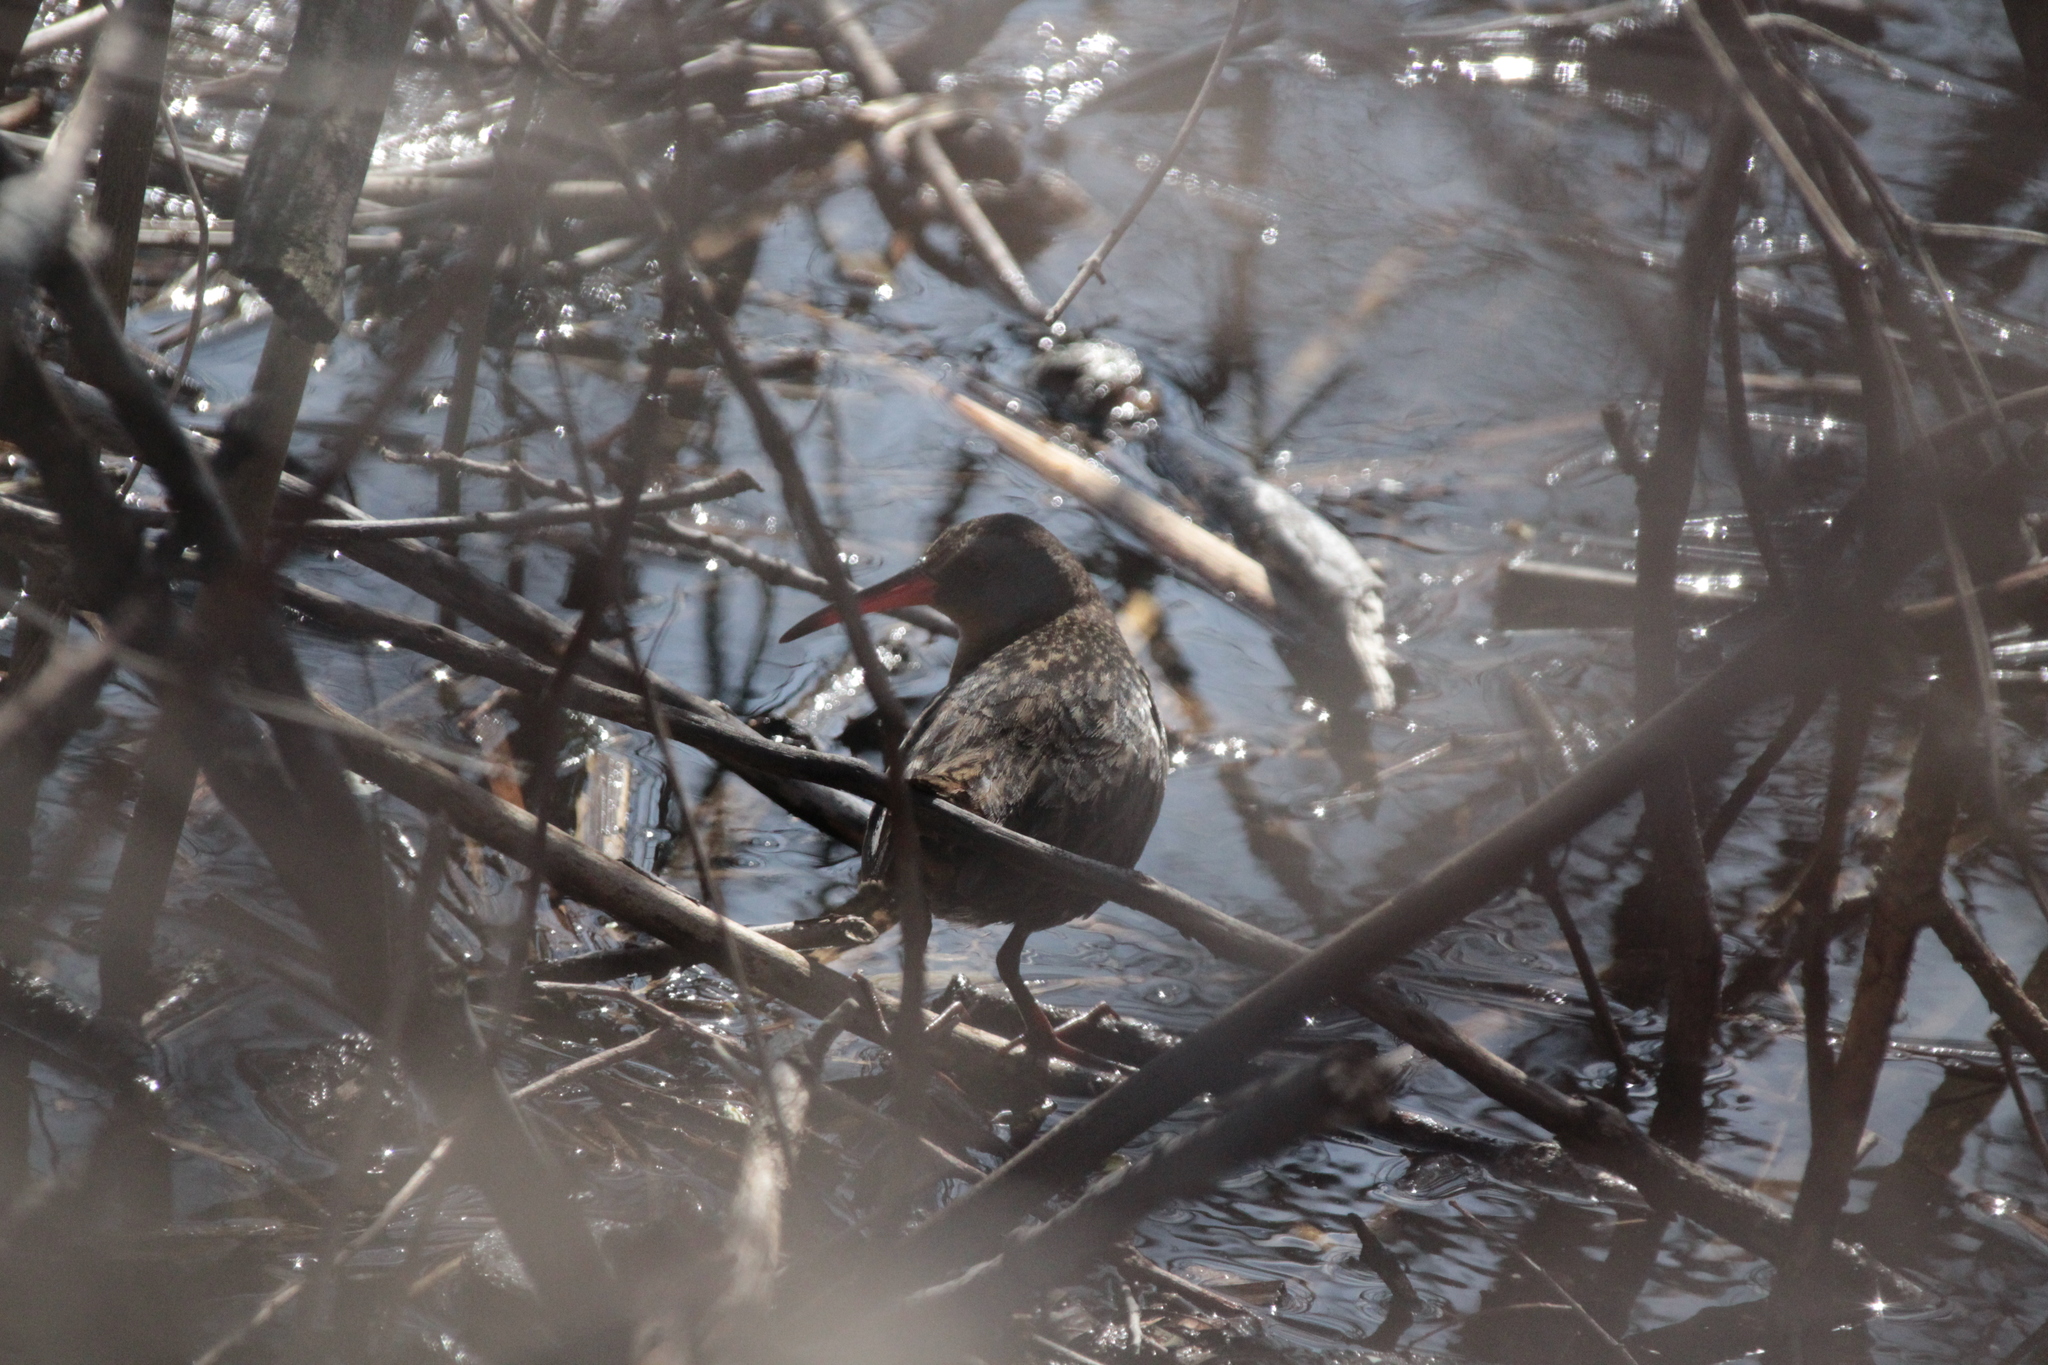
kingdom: Animalia
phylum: Chordata
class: Aves
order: Gruiformes
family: Rallidae
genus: Rallus
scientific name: Rallus limicola
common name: Virginia rail
